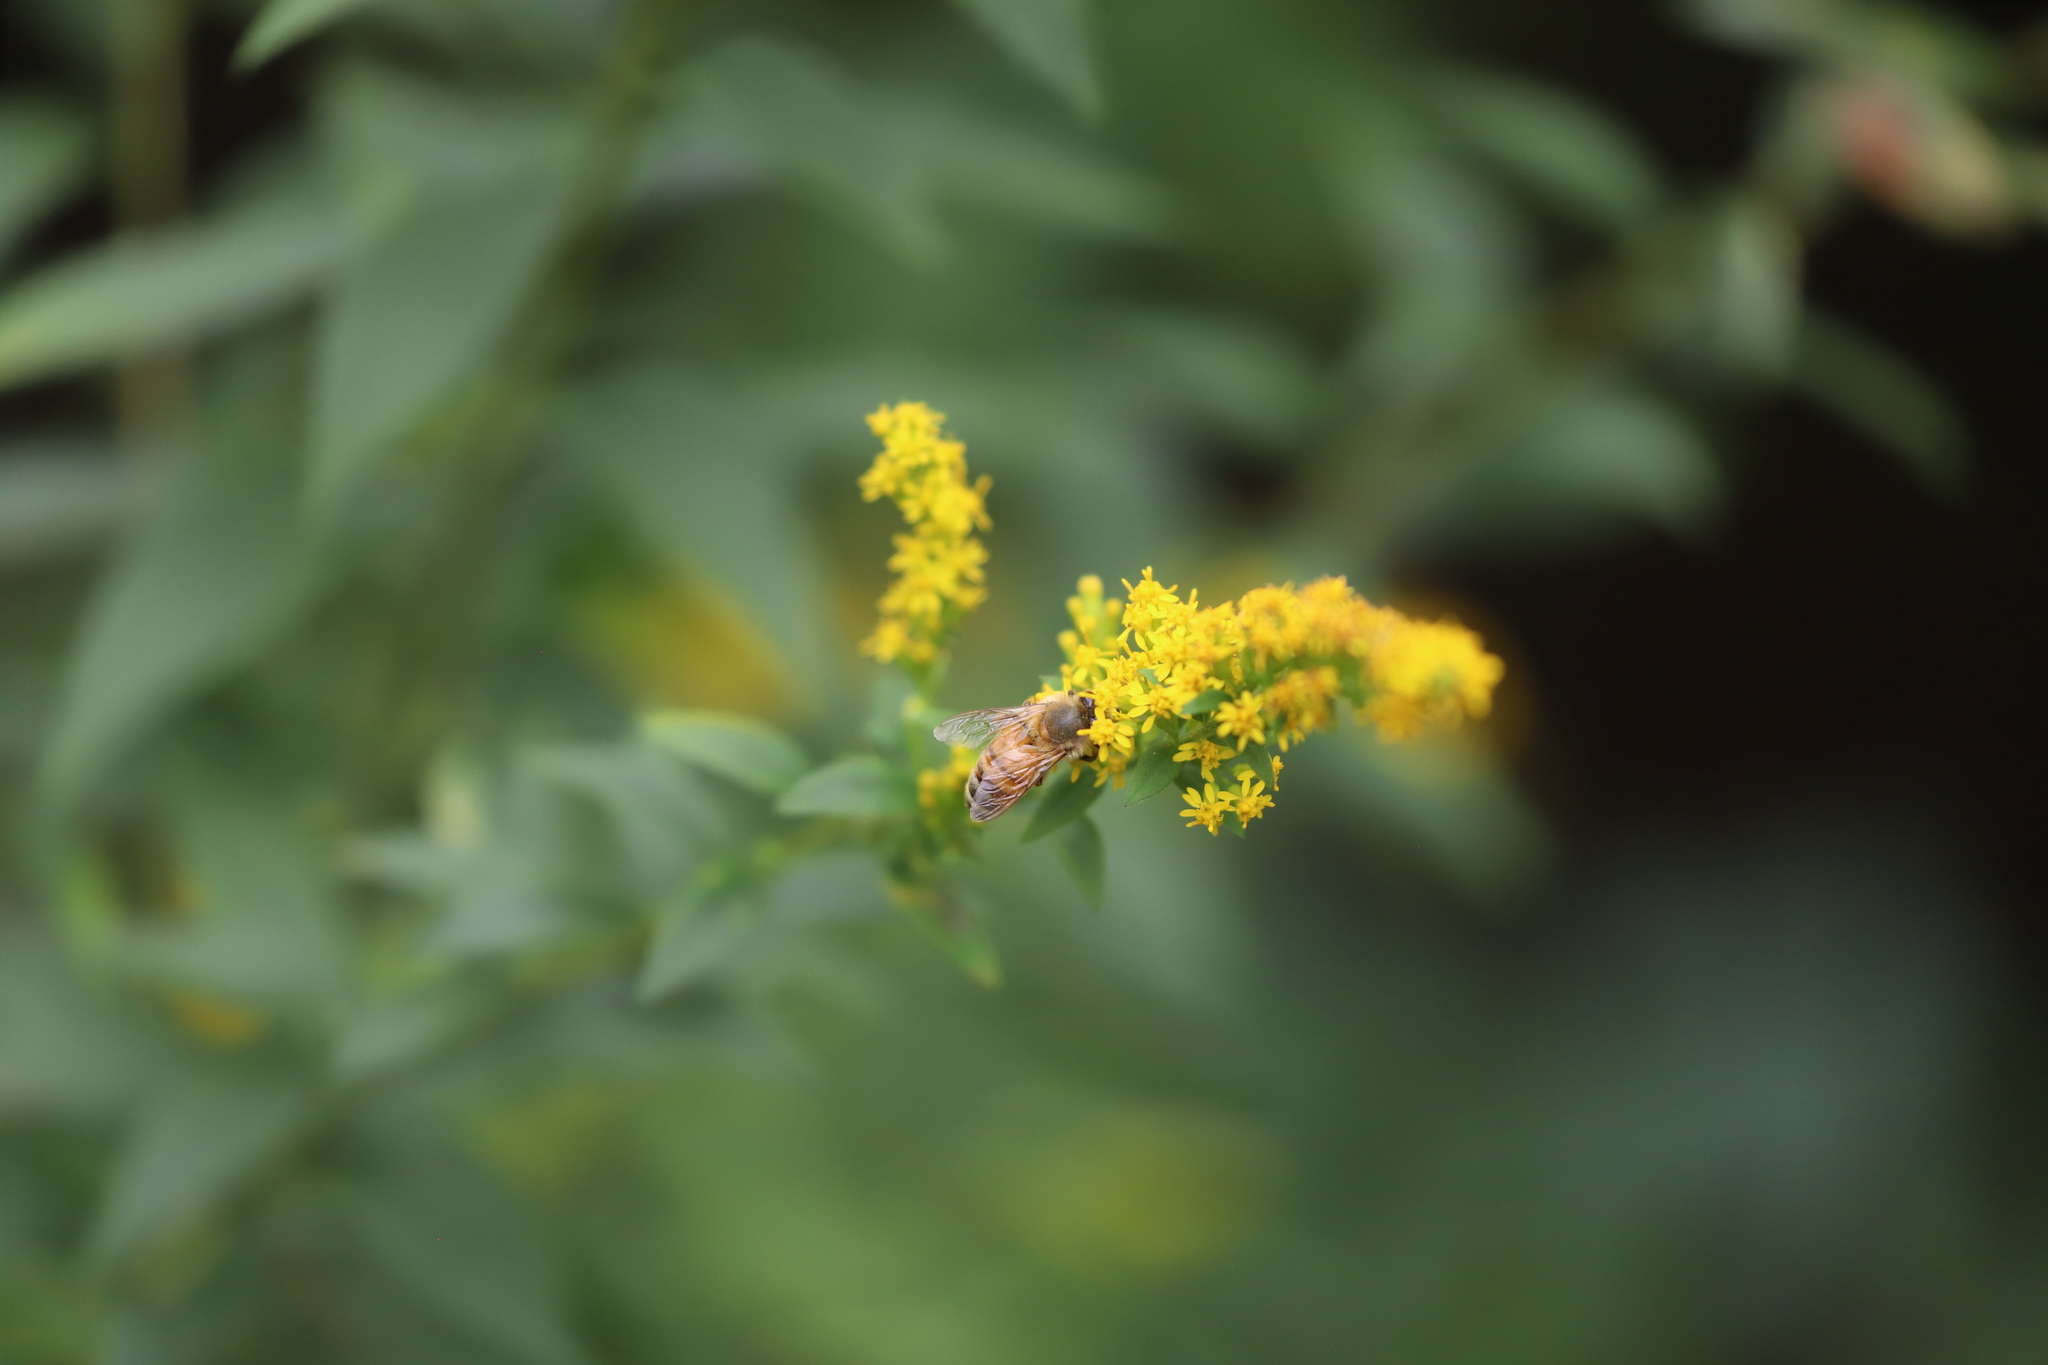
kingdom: Animalia
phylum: Arthropoda
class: Insecta
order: Hymenoptera
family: Apidae
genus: Apis
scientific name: Apis mellifera
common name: Honey bee
